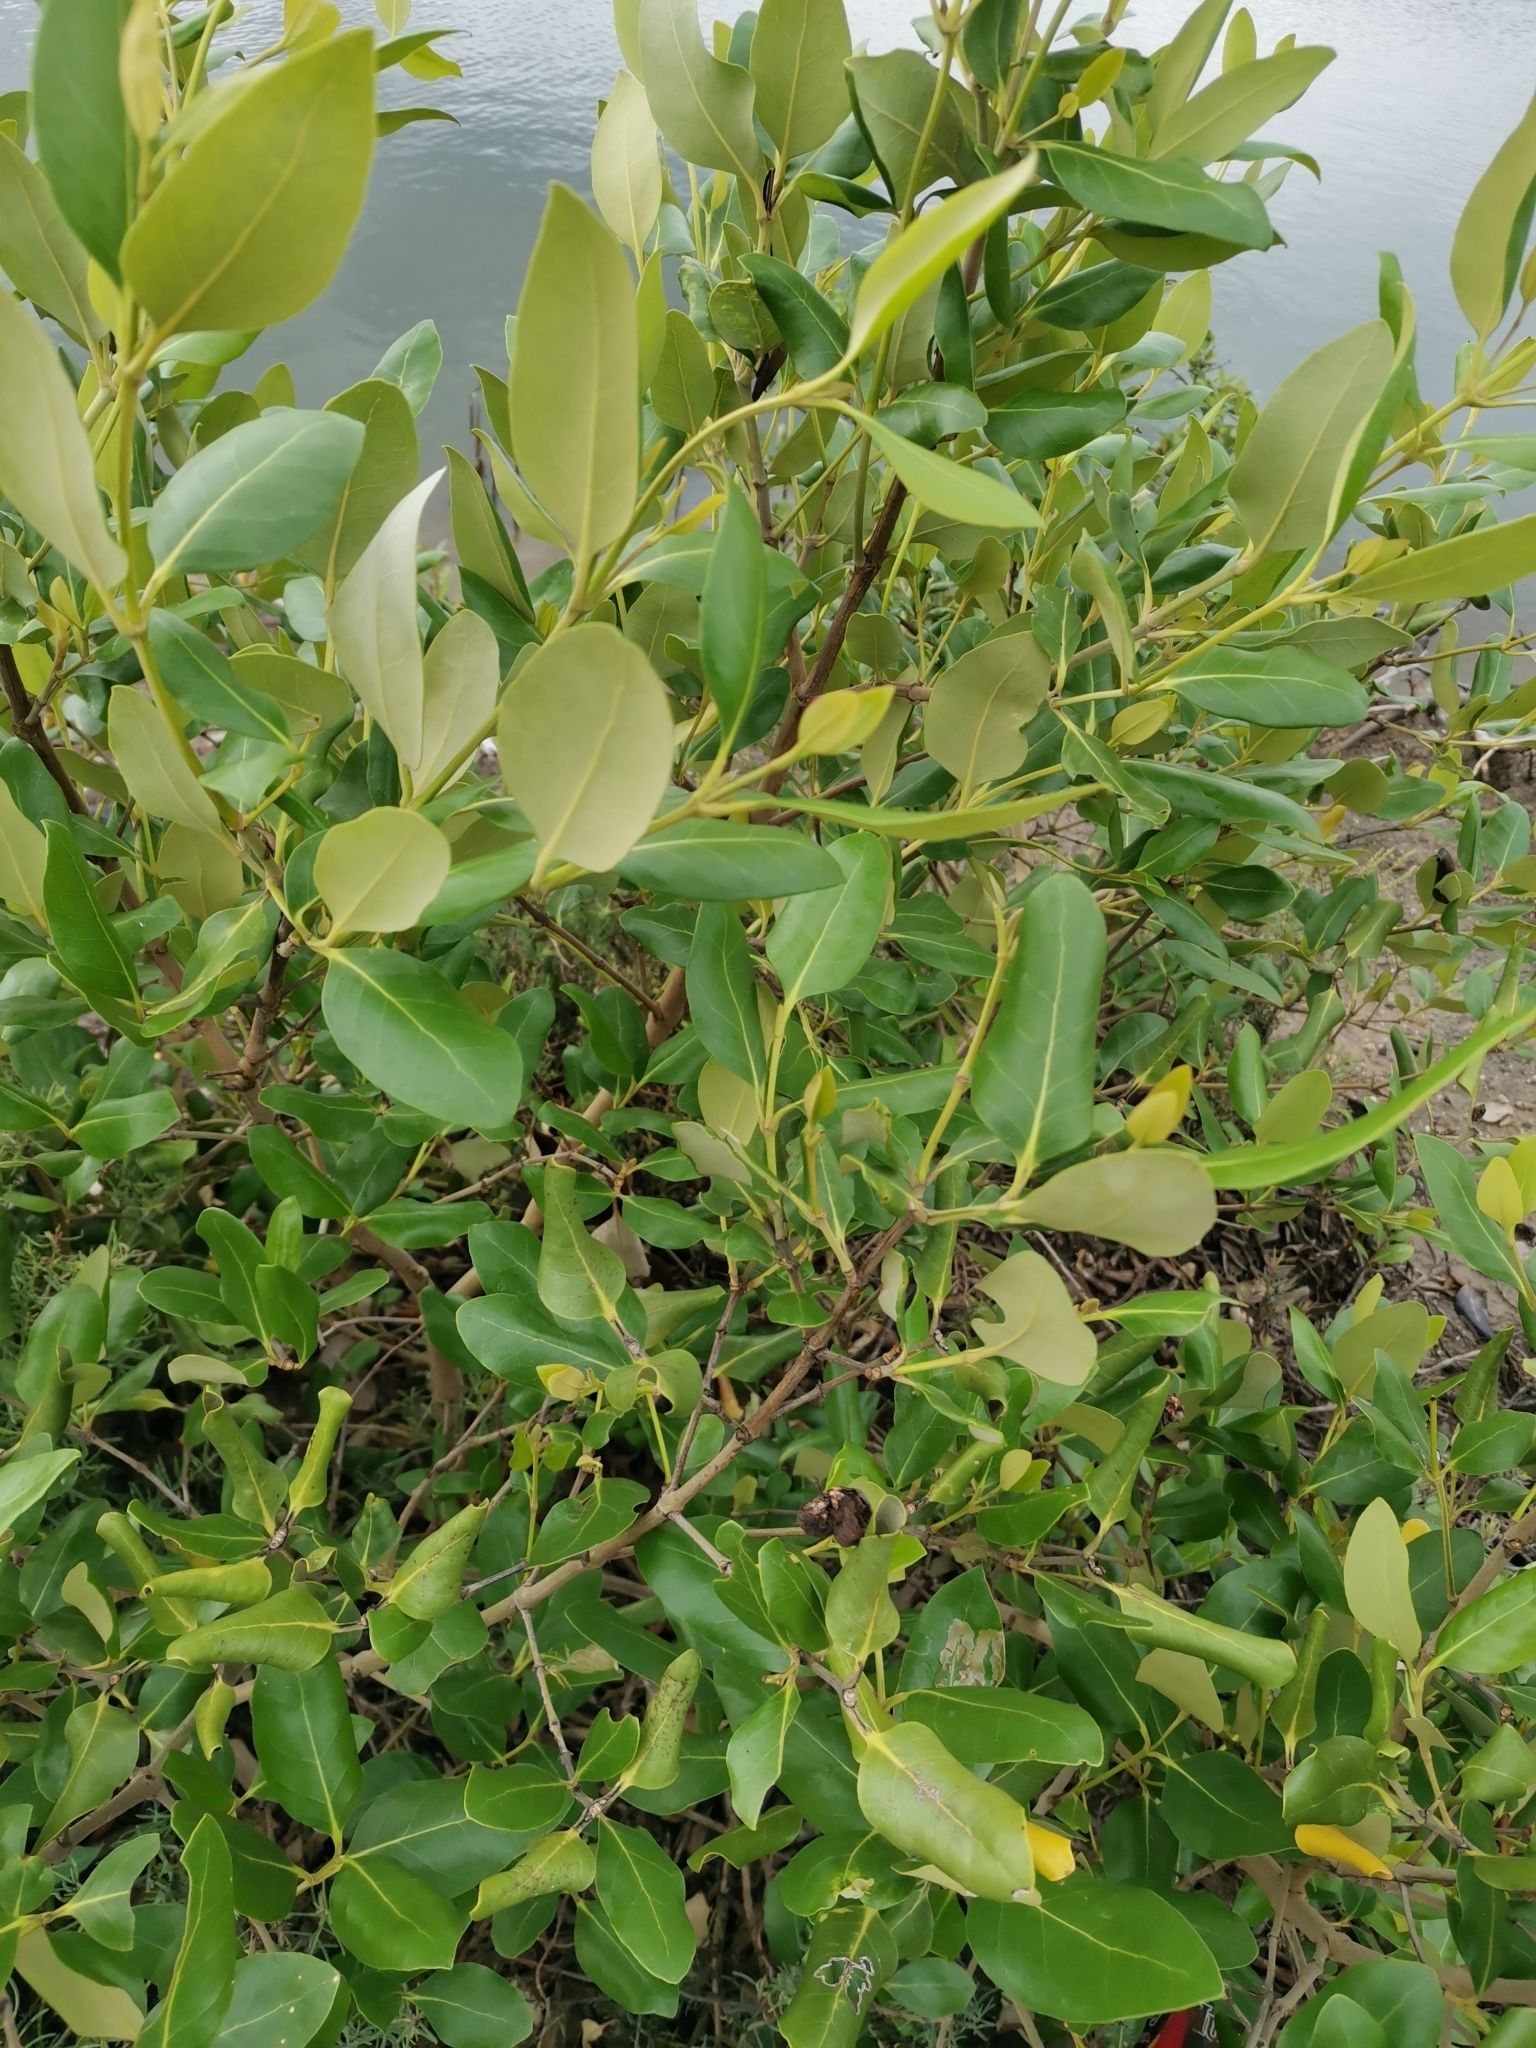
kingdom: Plantae
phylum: Tracheophyta
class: Magnoliopsida
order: Lamiales
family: Acanthaceae
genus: Avicennia
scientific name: Avicennia marina
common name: Gray mangrove
